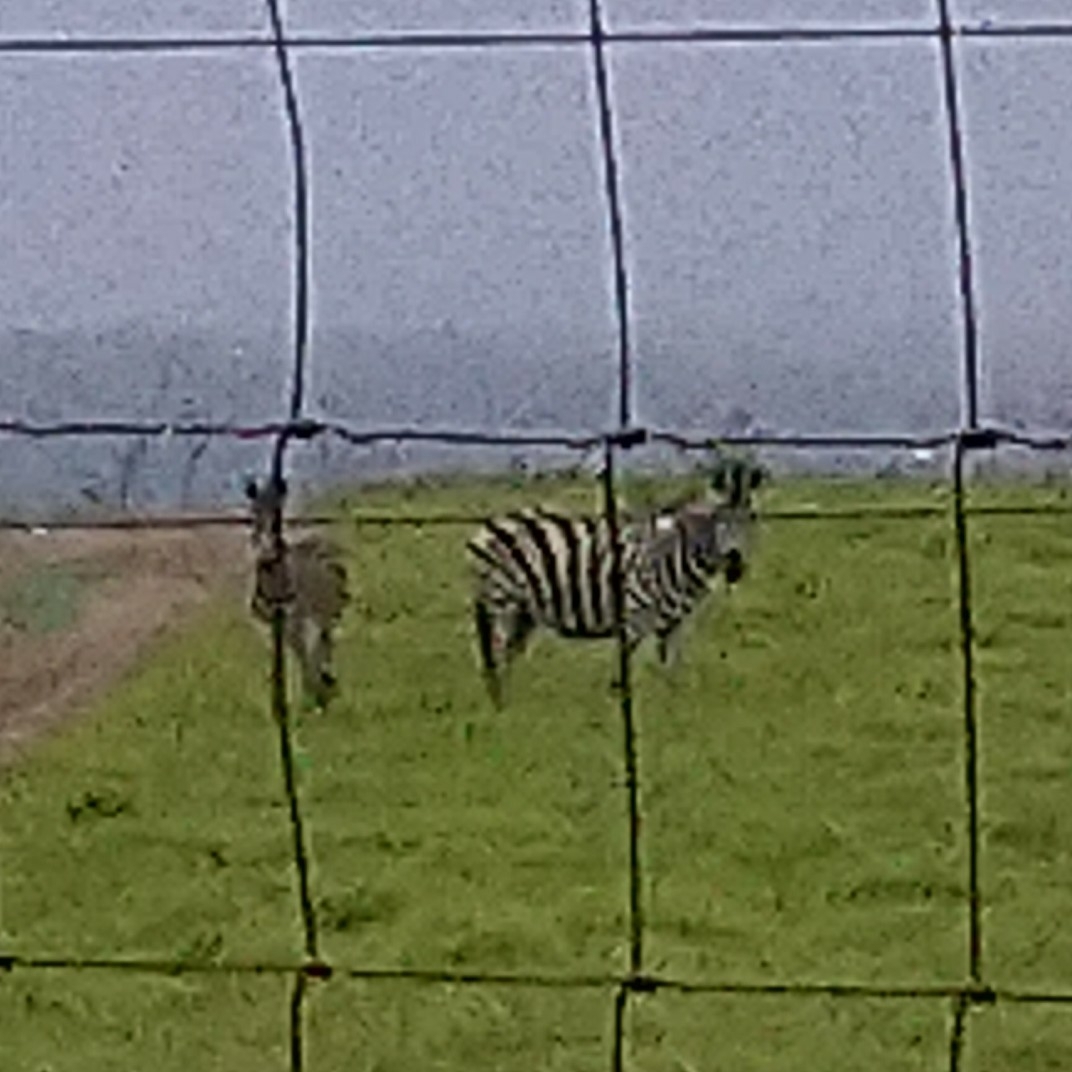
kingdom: Animalia
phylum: Chordata
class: Mammalia
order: Perissodactyla
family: Equidae
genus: Equus
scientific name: Equus quagga
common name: Plains zebra
